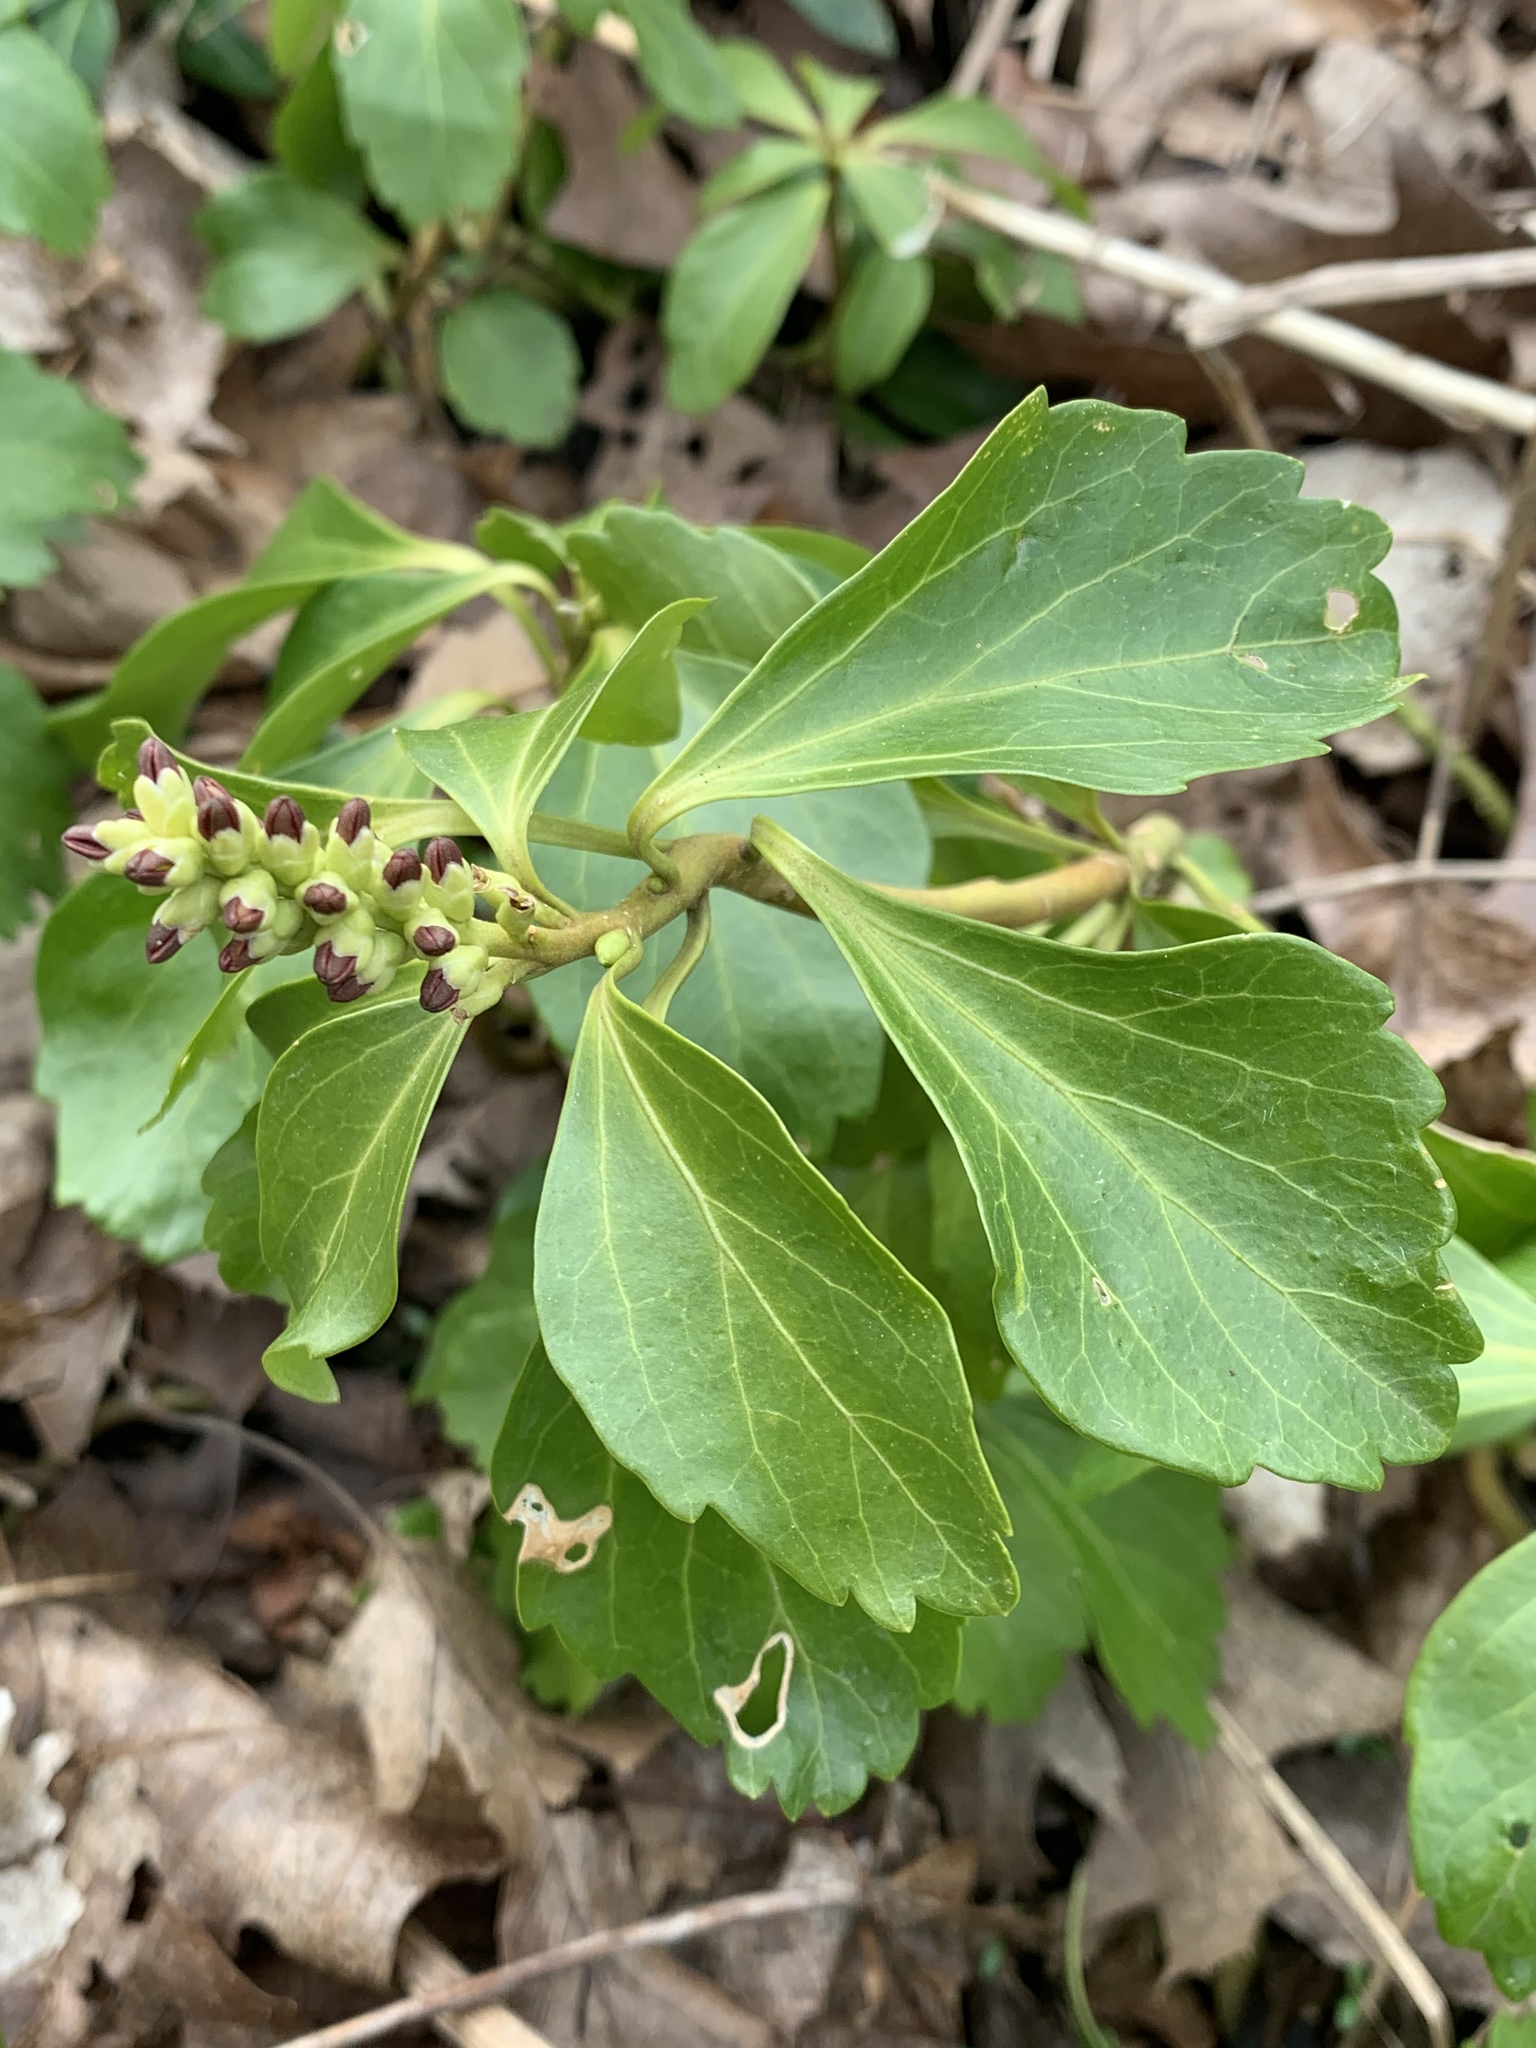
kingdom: Plantae
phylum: Tracheophyta
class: Magnoliopsida
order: Buxales
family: Buxaceae
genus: Pachysandra
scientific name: Pachysandra terminalis
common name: Japanese pachysandra
